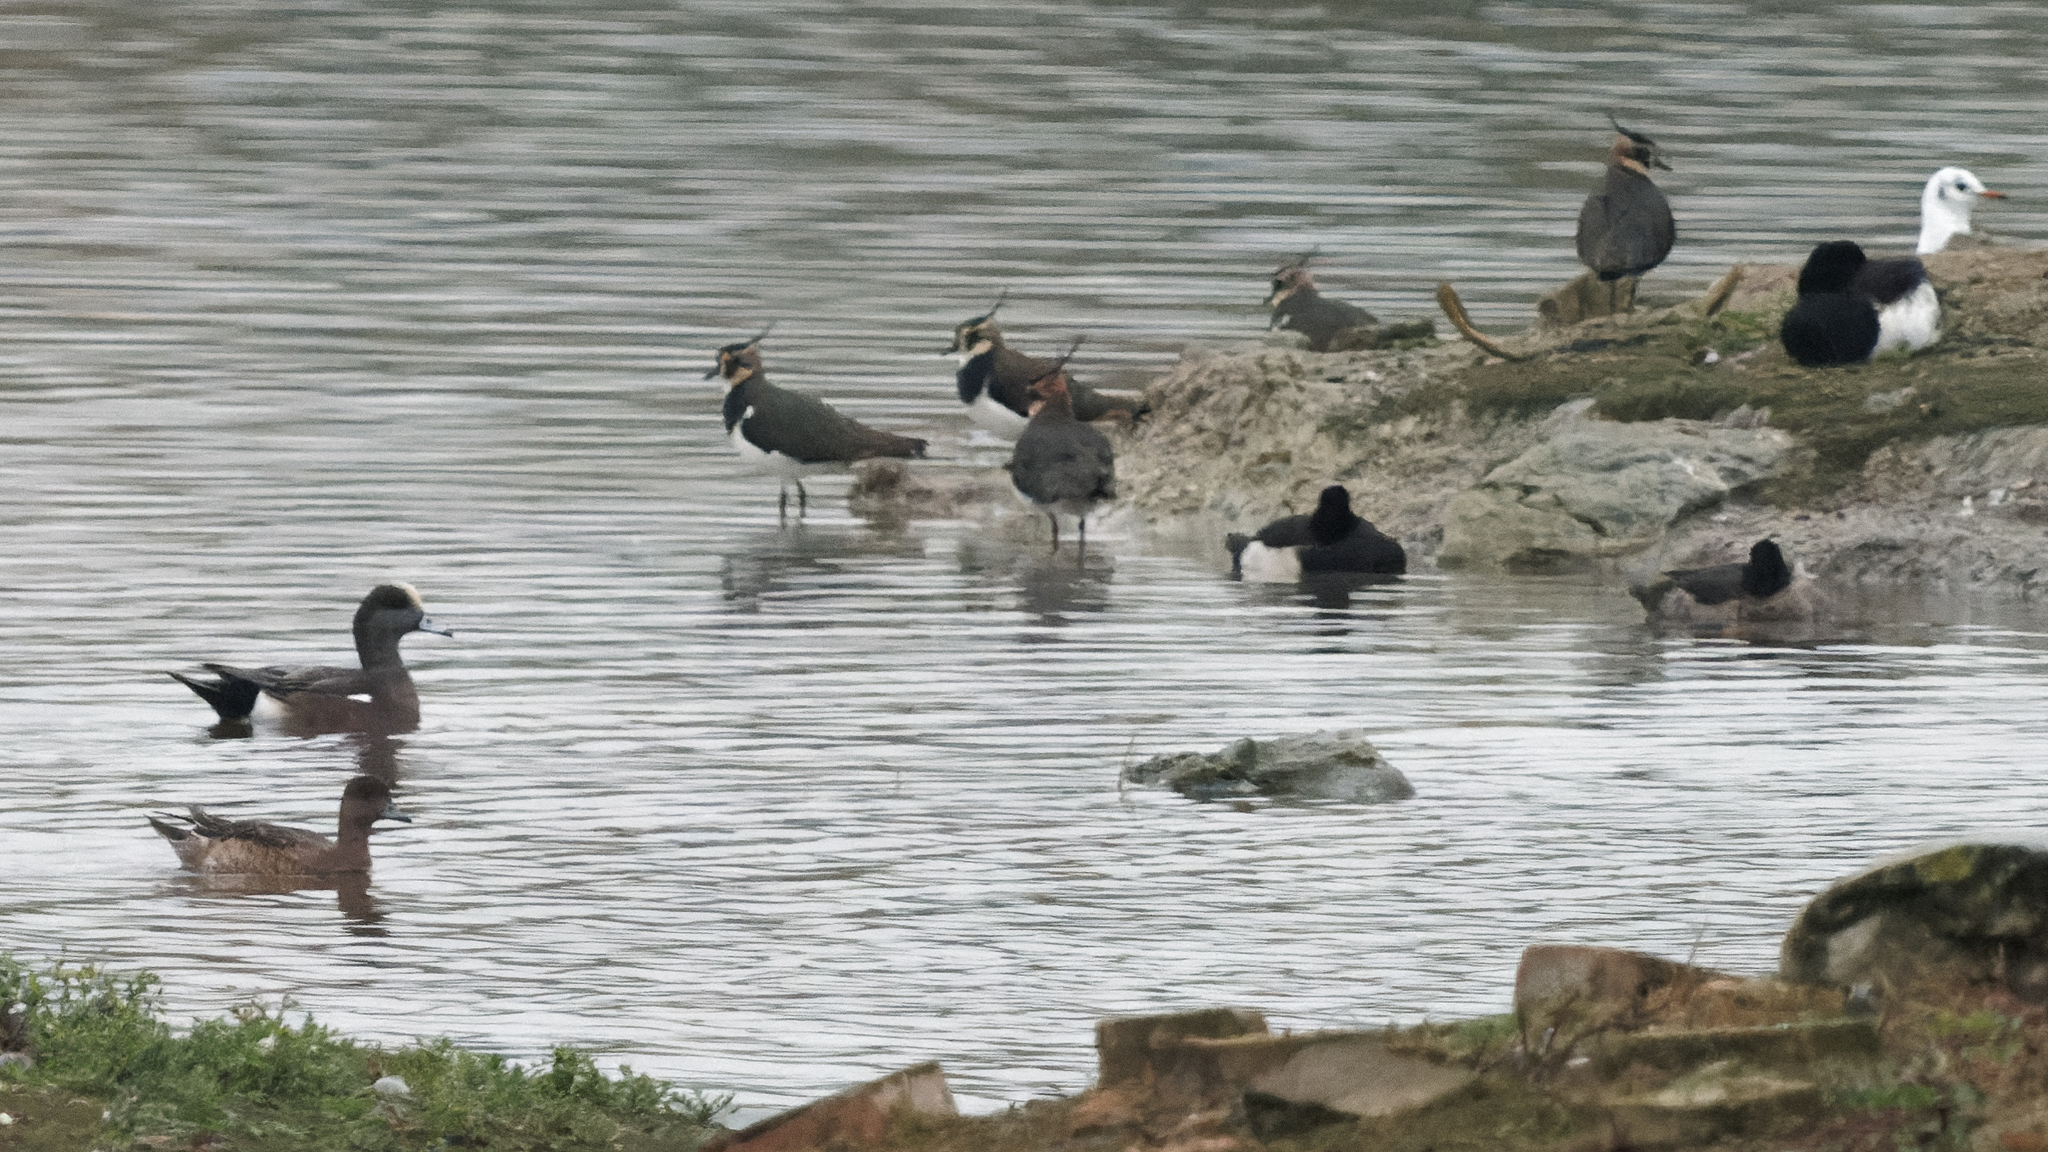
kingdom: Animalia
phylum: Chordata
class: Aves
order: Charadriiformes
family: Charadriidae
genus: Vanellus
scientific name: Vanellus vanellus
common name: Northern lapwing
